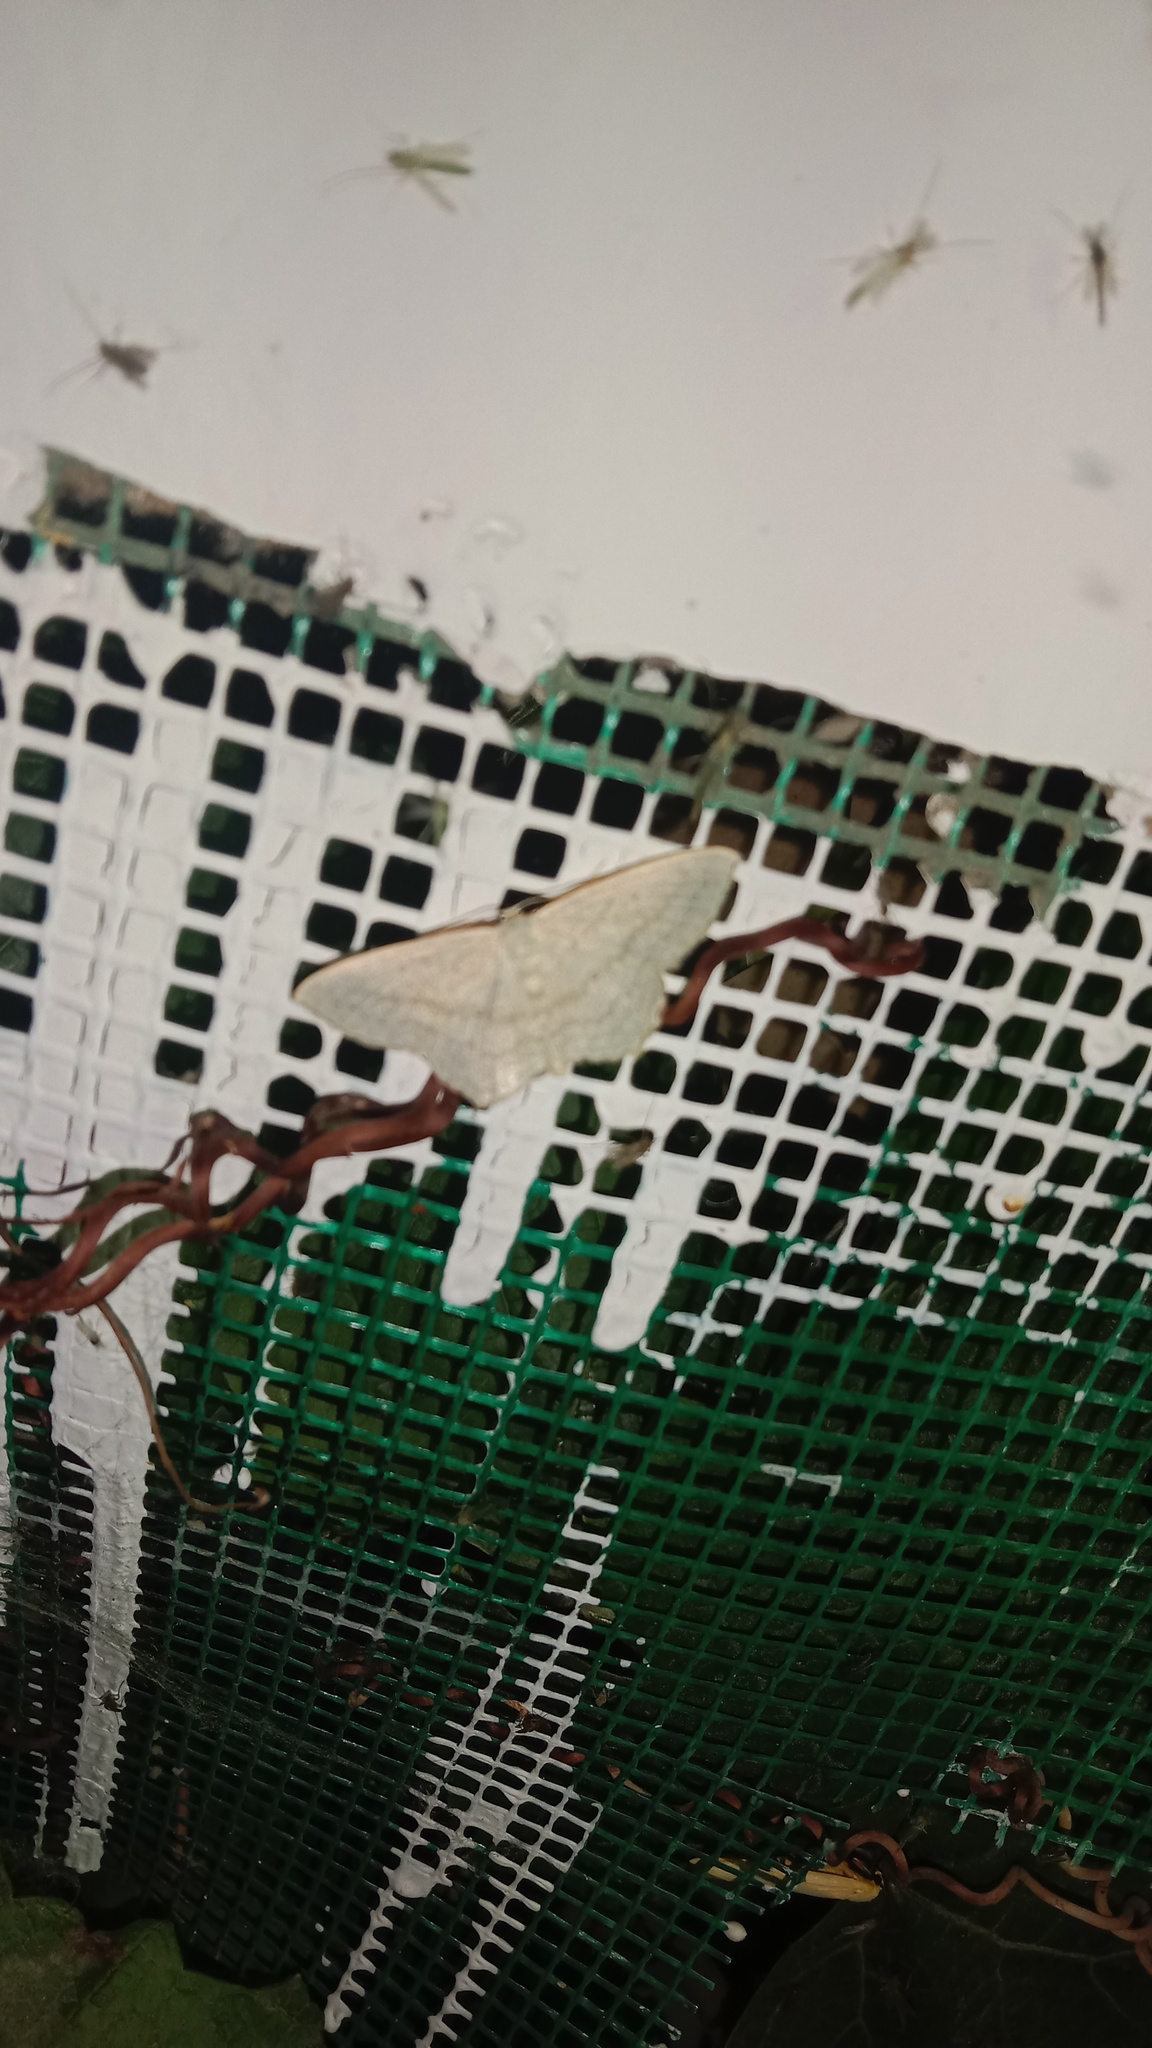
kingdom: Animalia
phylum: Arthropoda
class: Insecta
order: Lepidoptera
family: Geometridae
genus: Scopula
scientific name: Scopula nigropunctata
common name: Sub-angled wave
